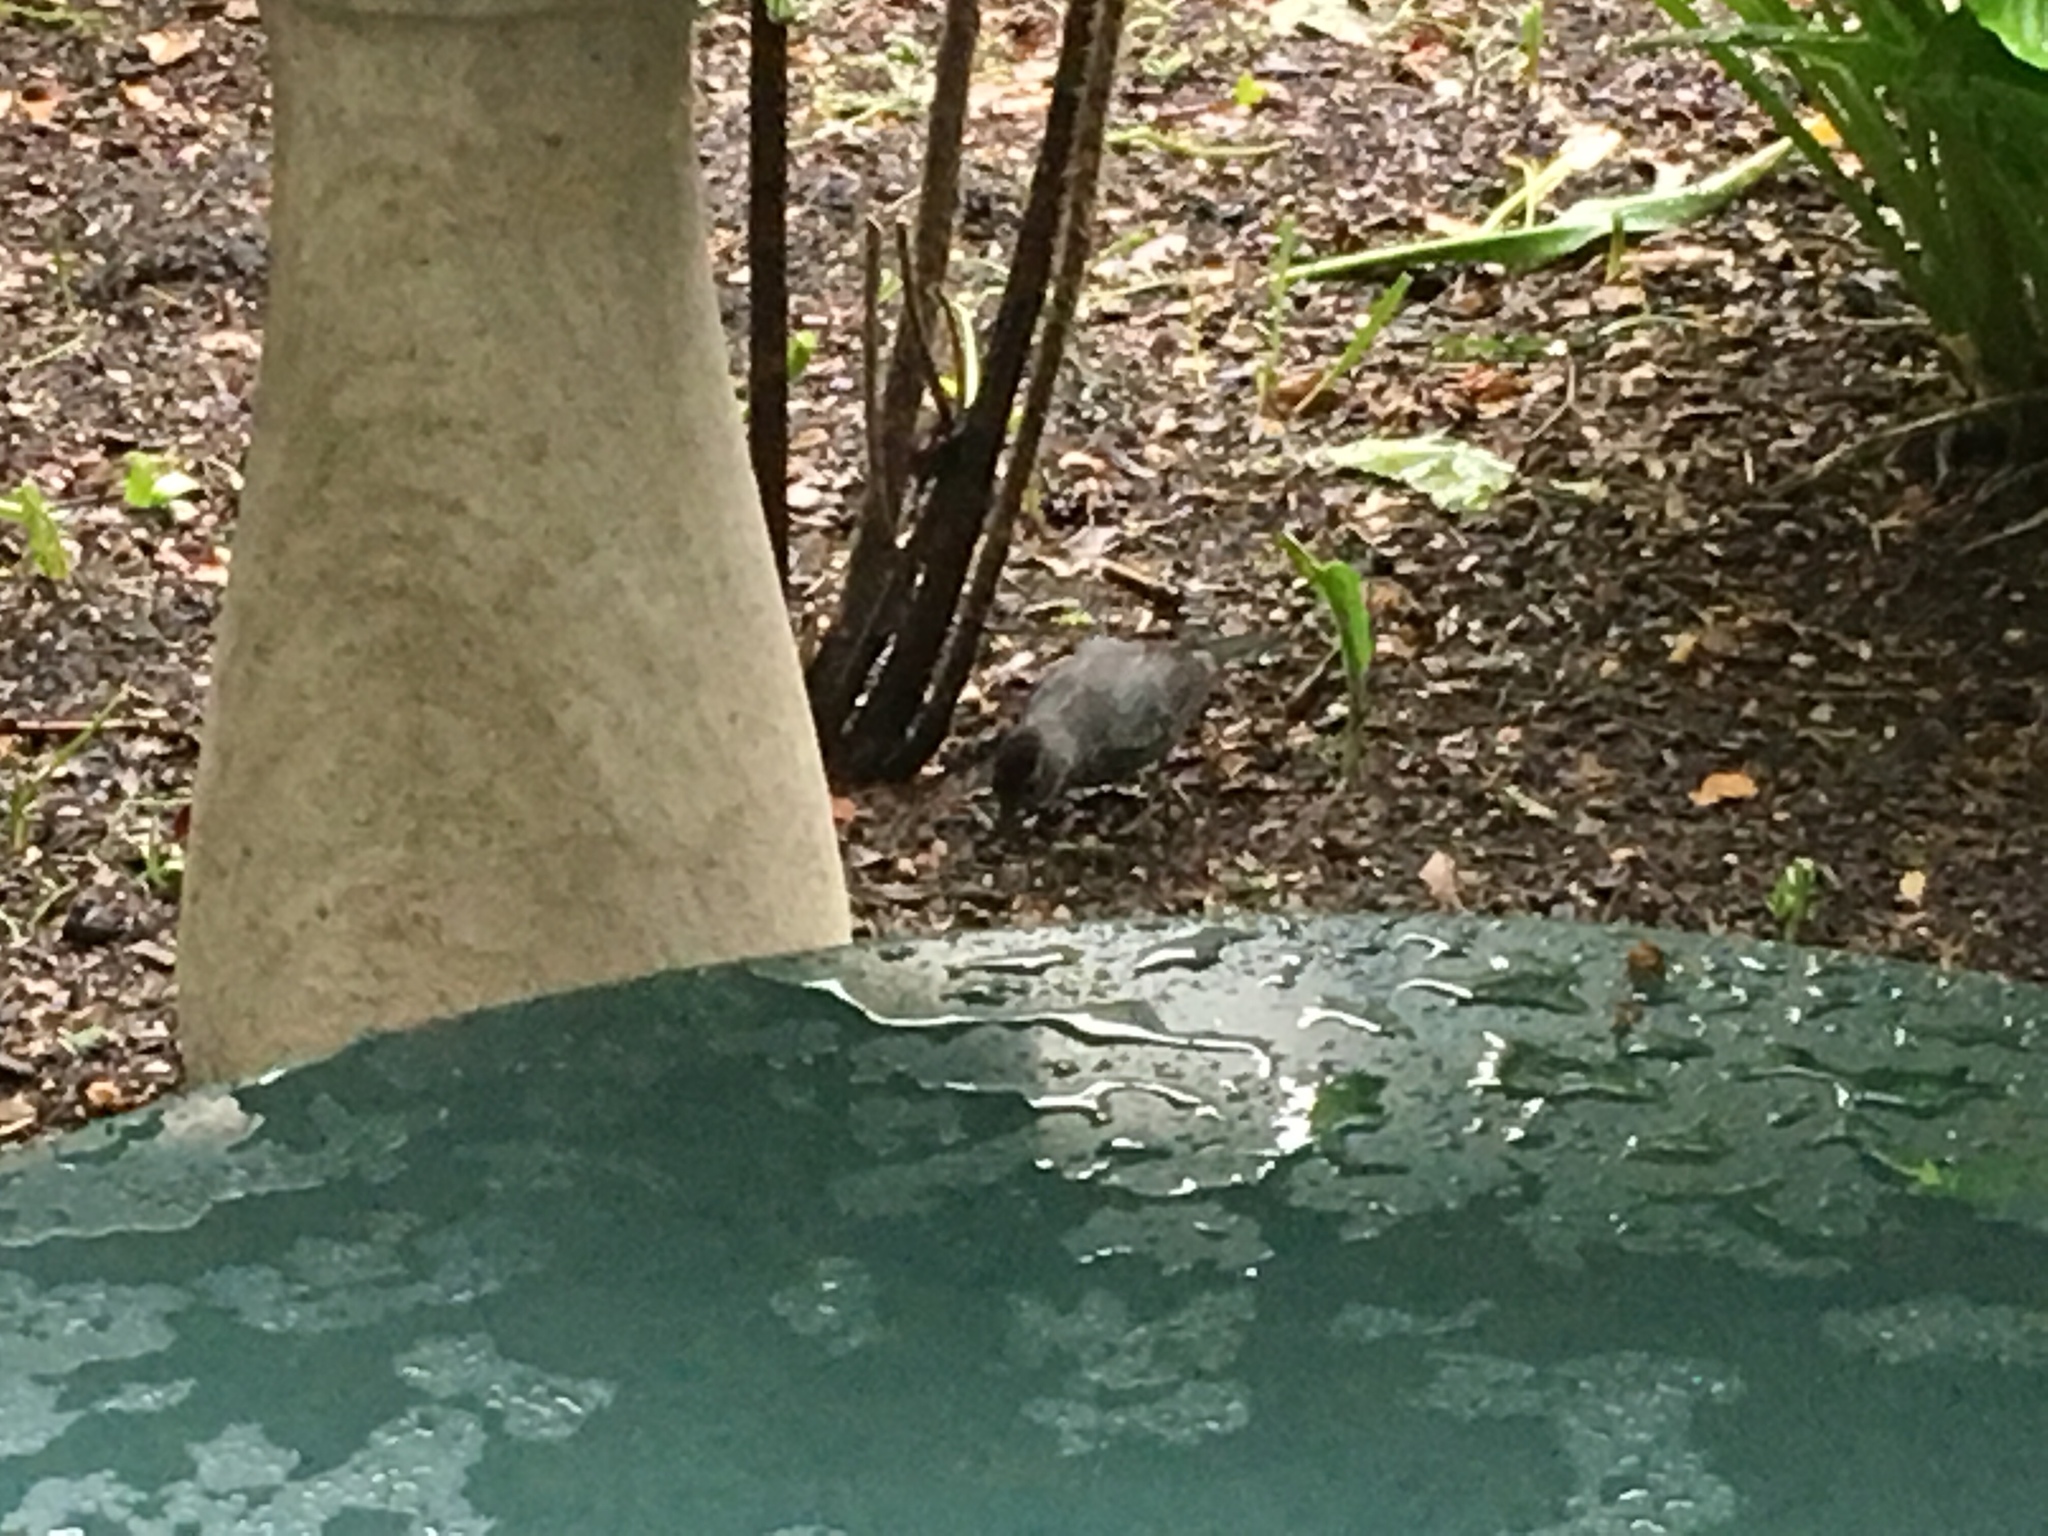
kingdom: Animalia
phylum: Chordata
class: Aves
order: Passeriformes
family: Mimidae
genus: Dumetella
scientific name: Dumetella carolinensis
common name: Gray catbird
